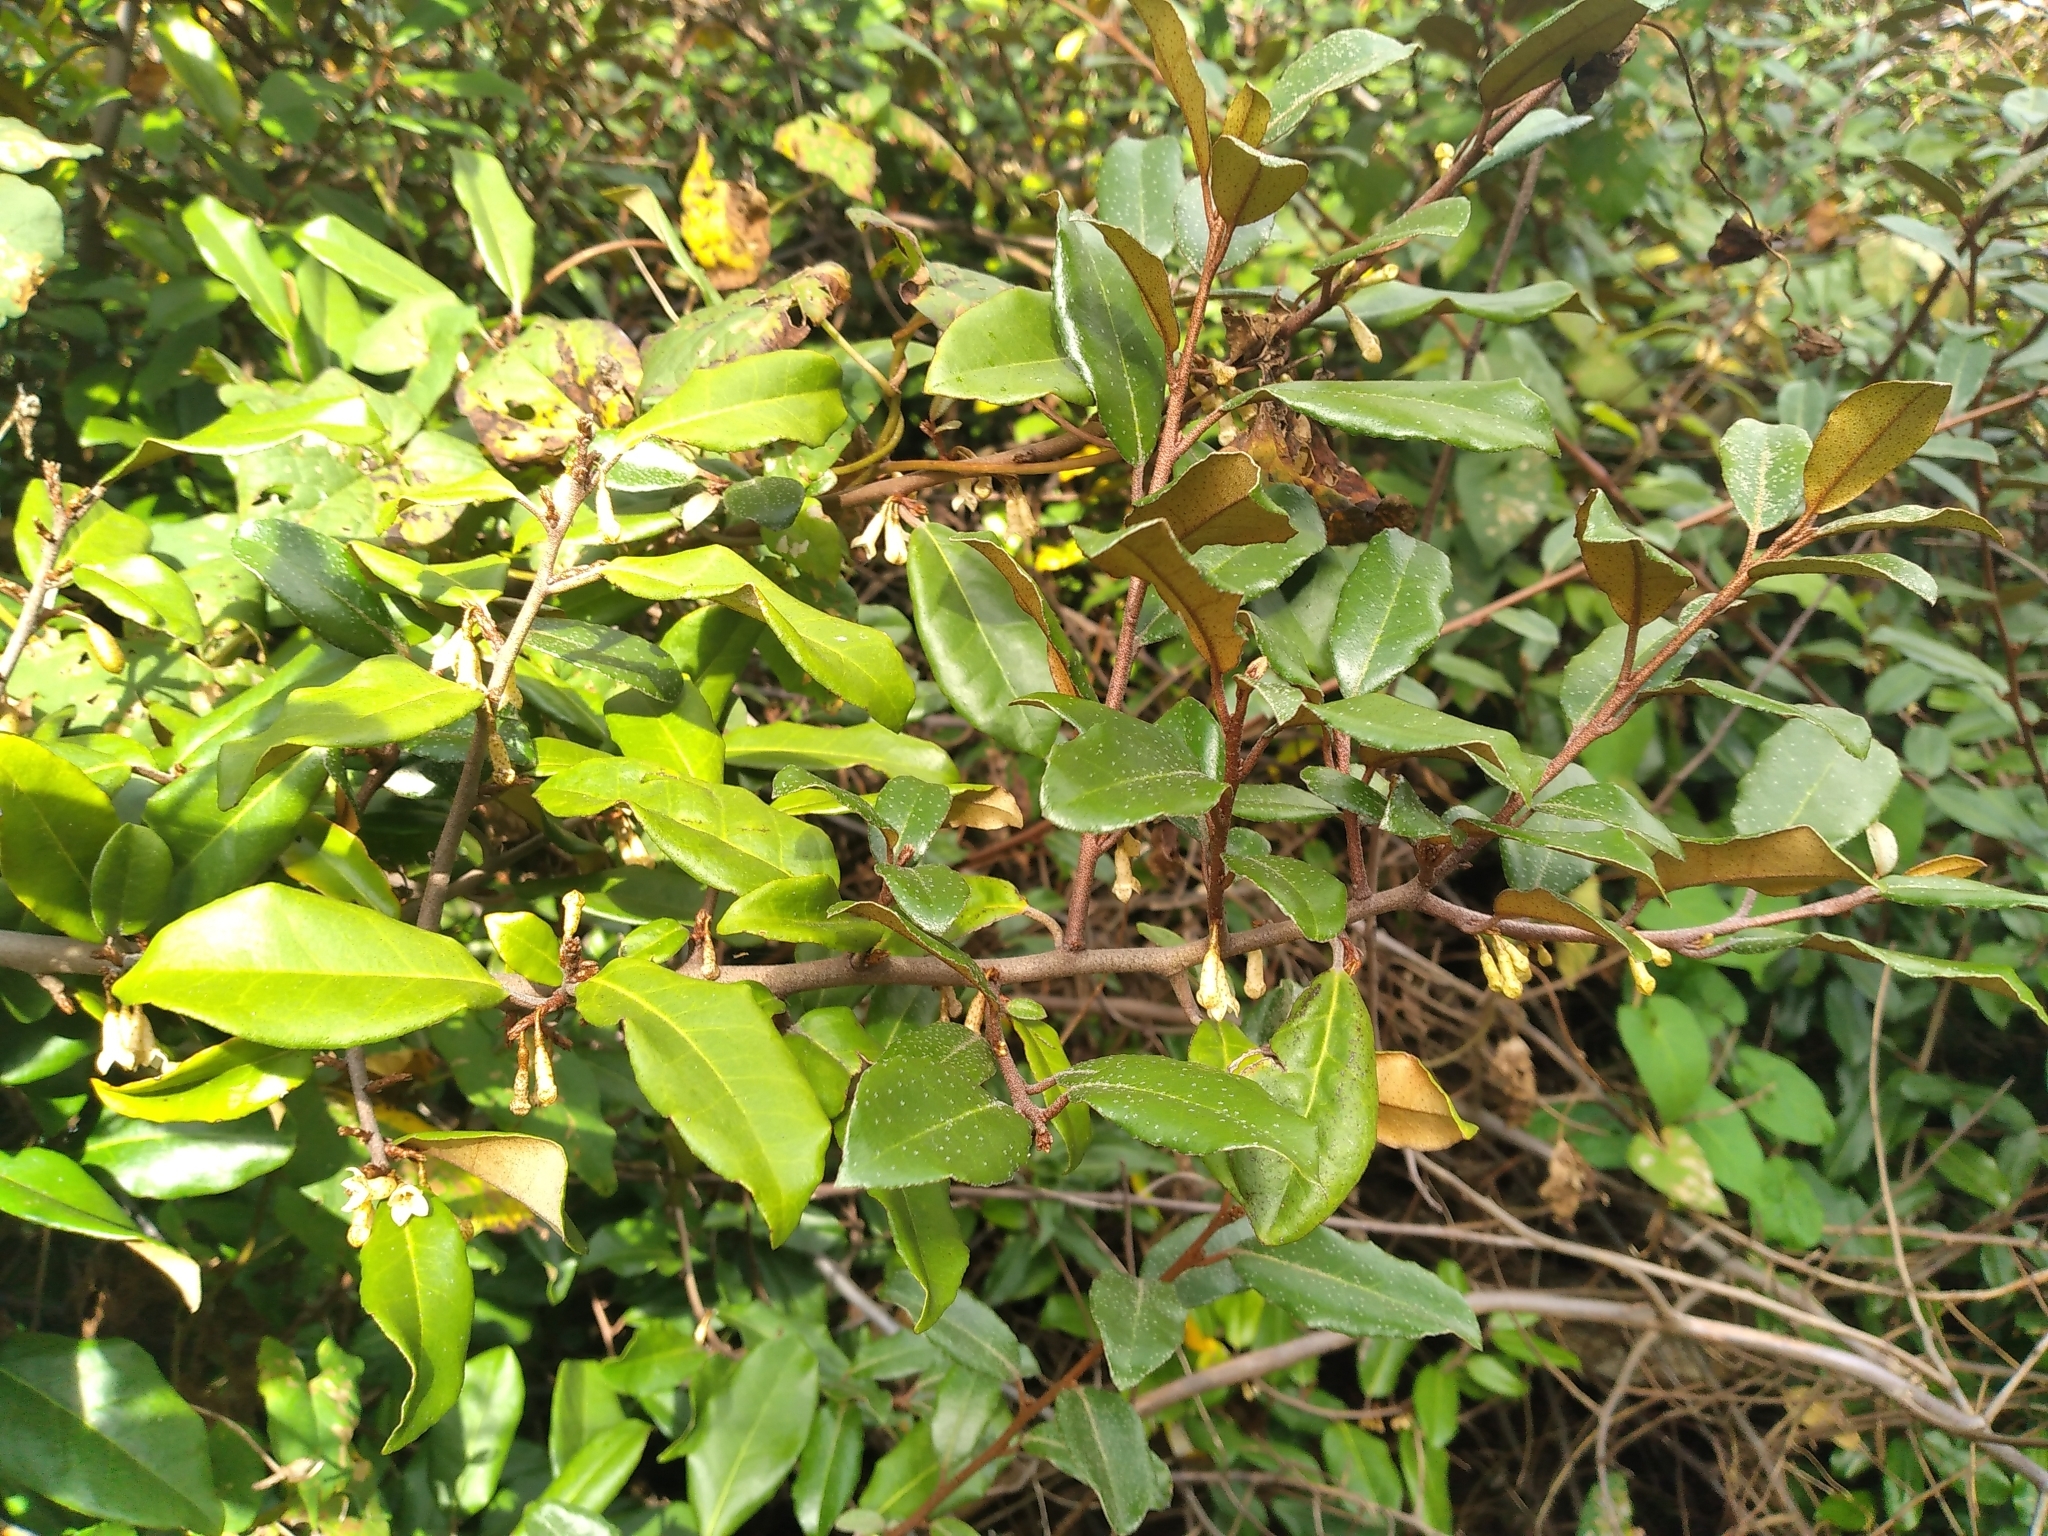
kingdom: Plantae
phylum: Tracheophyta
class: Magnoliopsida
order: Rosales
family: Elaeagnaceae
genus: Elaeagnus
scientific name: Elaeagnus reflexa
